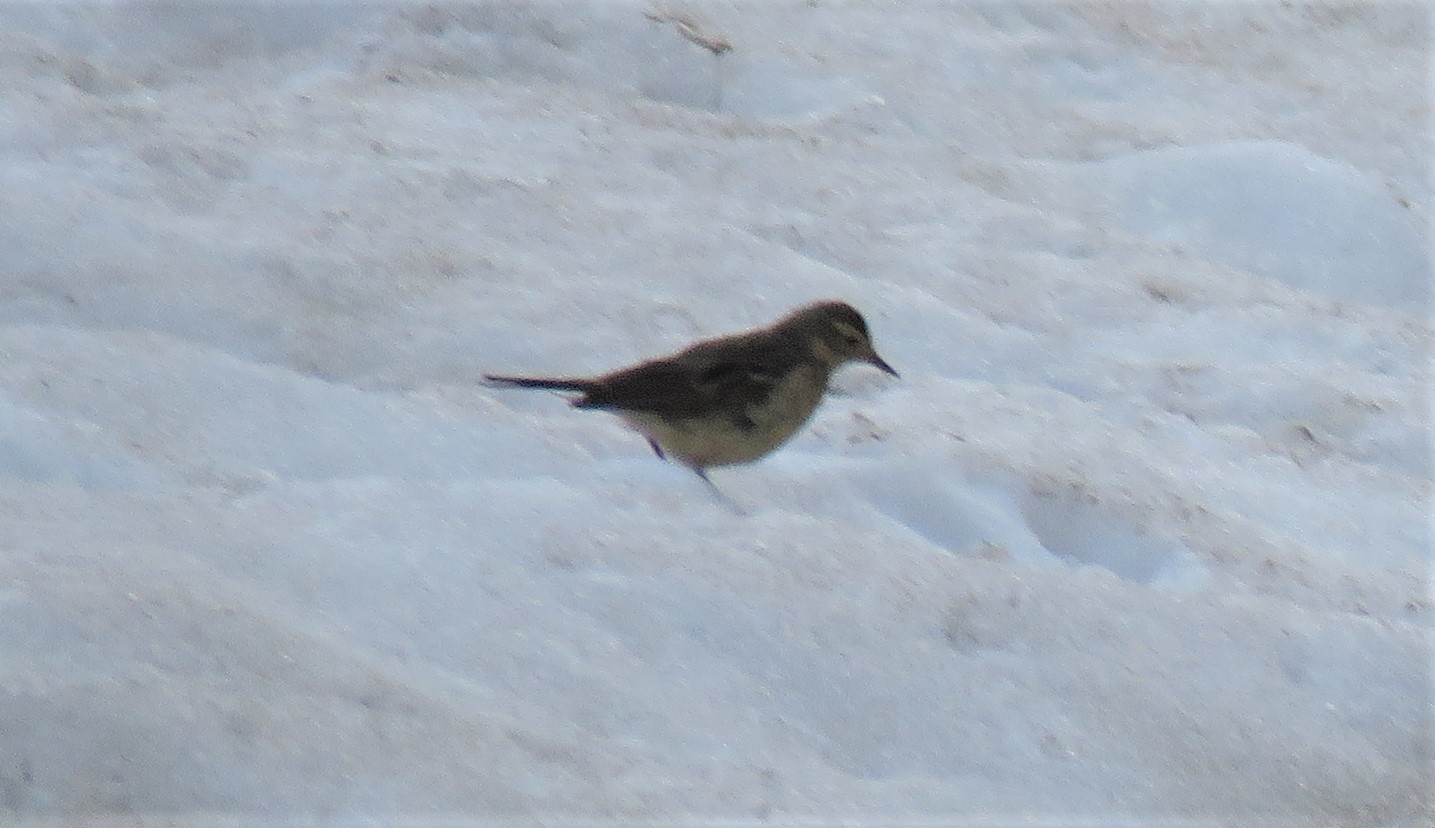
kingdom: Animalia
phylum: Chordata
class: Aves
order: Passeriformes
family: Motacillidae
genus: Anthus
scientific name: Anthus rubescens
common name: Buff-bellied pipit
